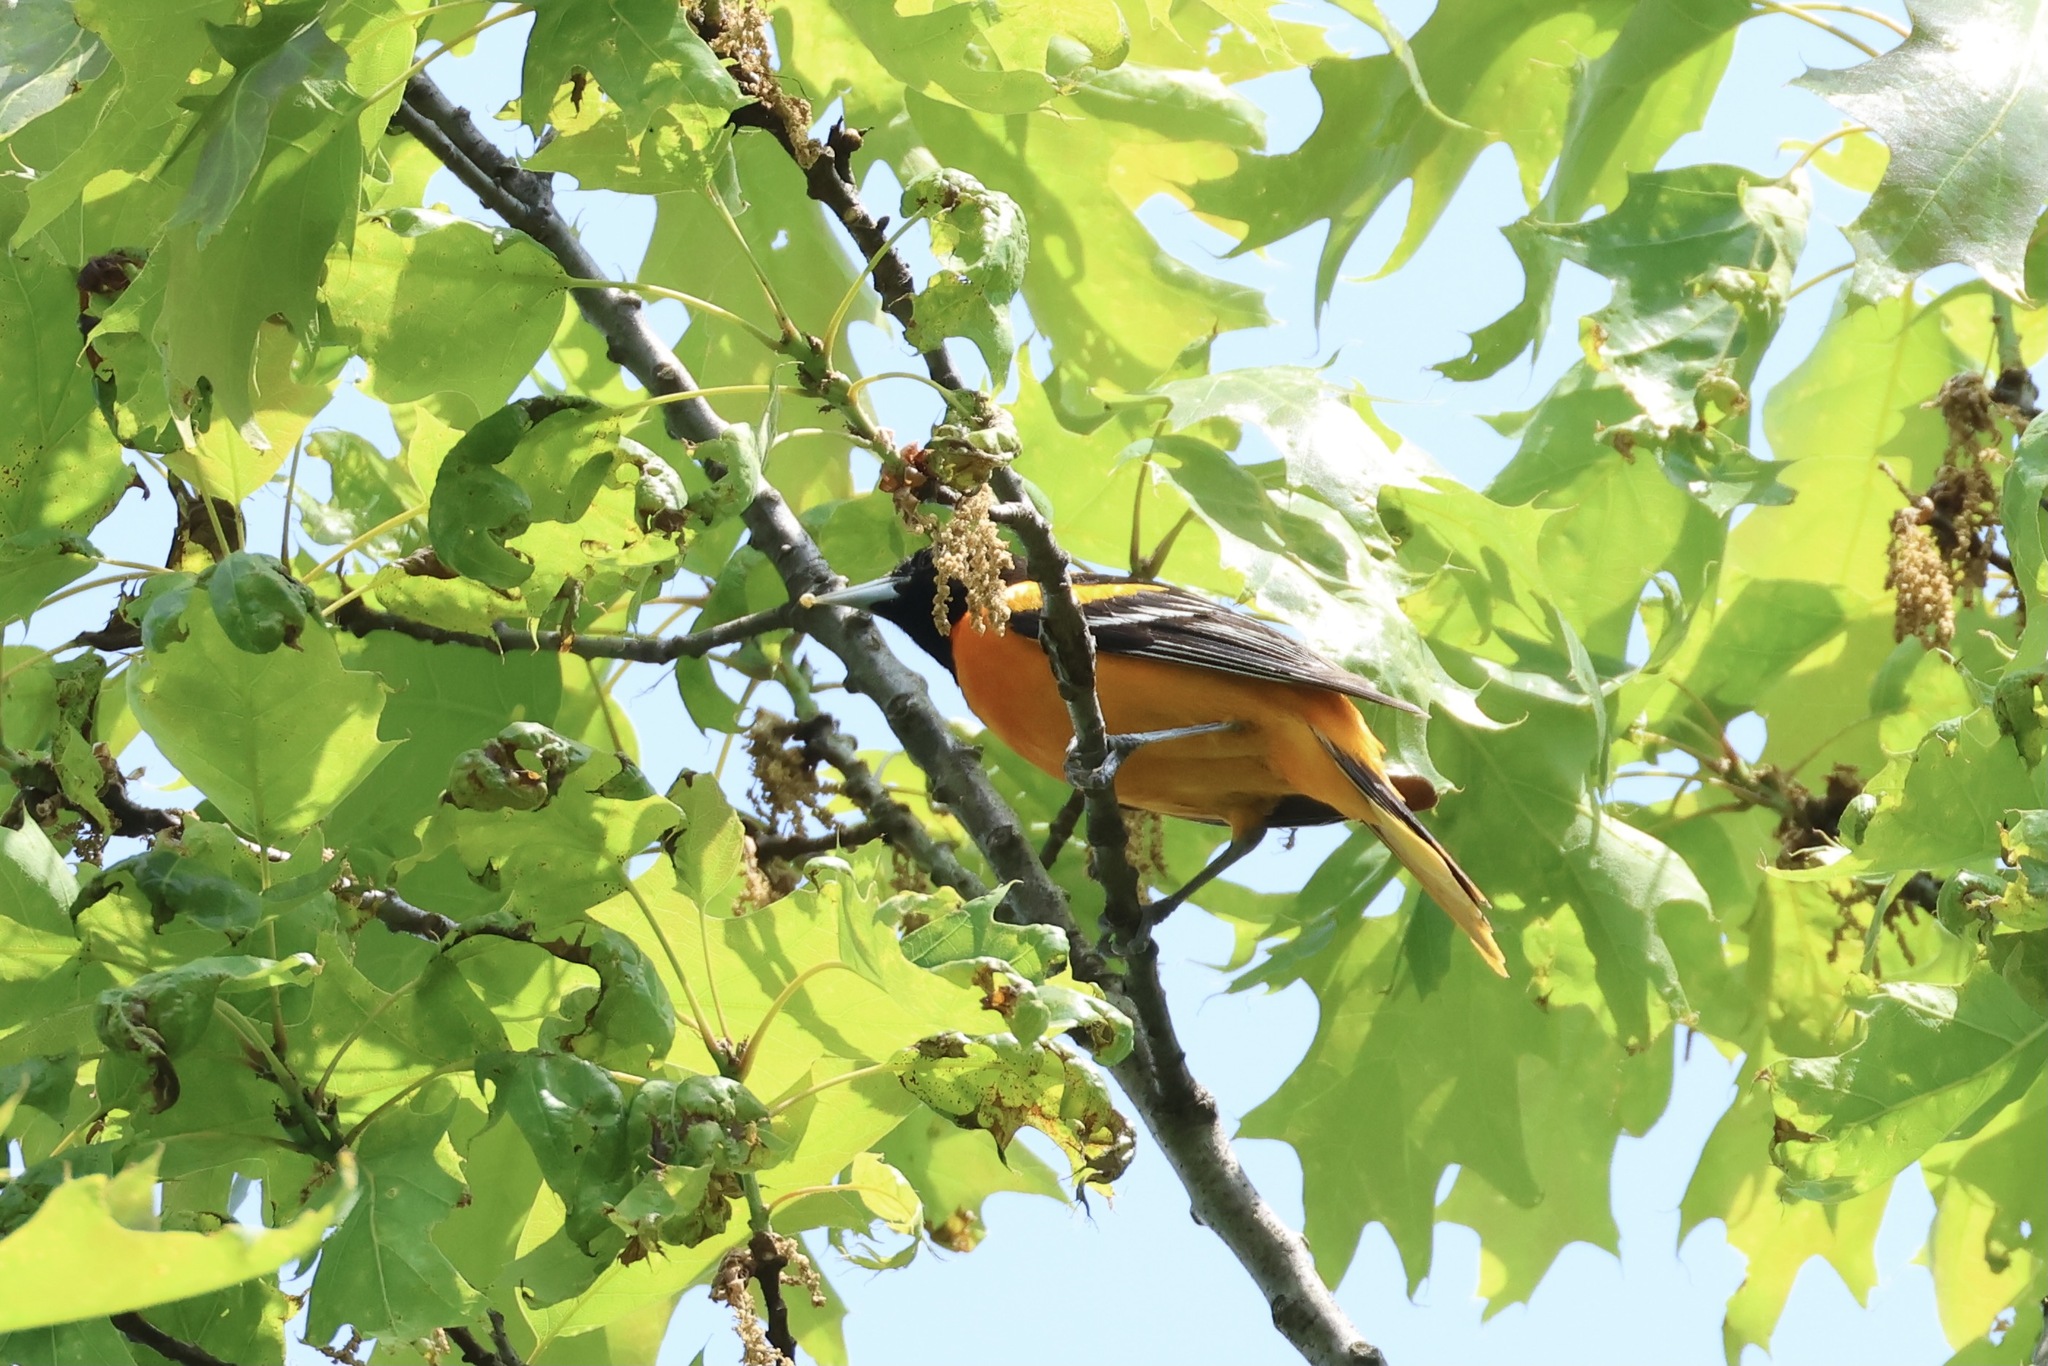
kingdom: Animalia
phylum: Chordata
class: Aves
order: Passeriformes
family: Icteridae
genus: Icterus
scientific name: Icterus galbula
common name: Baltimore oriole
